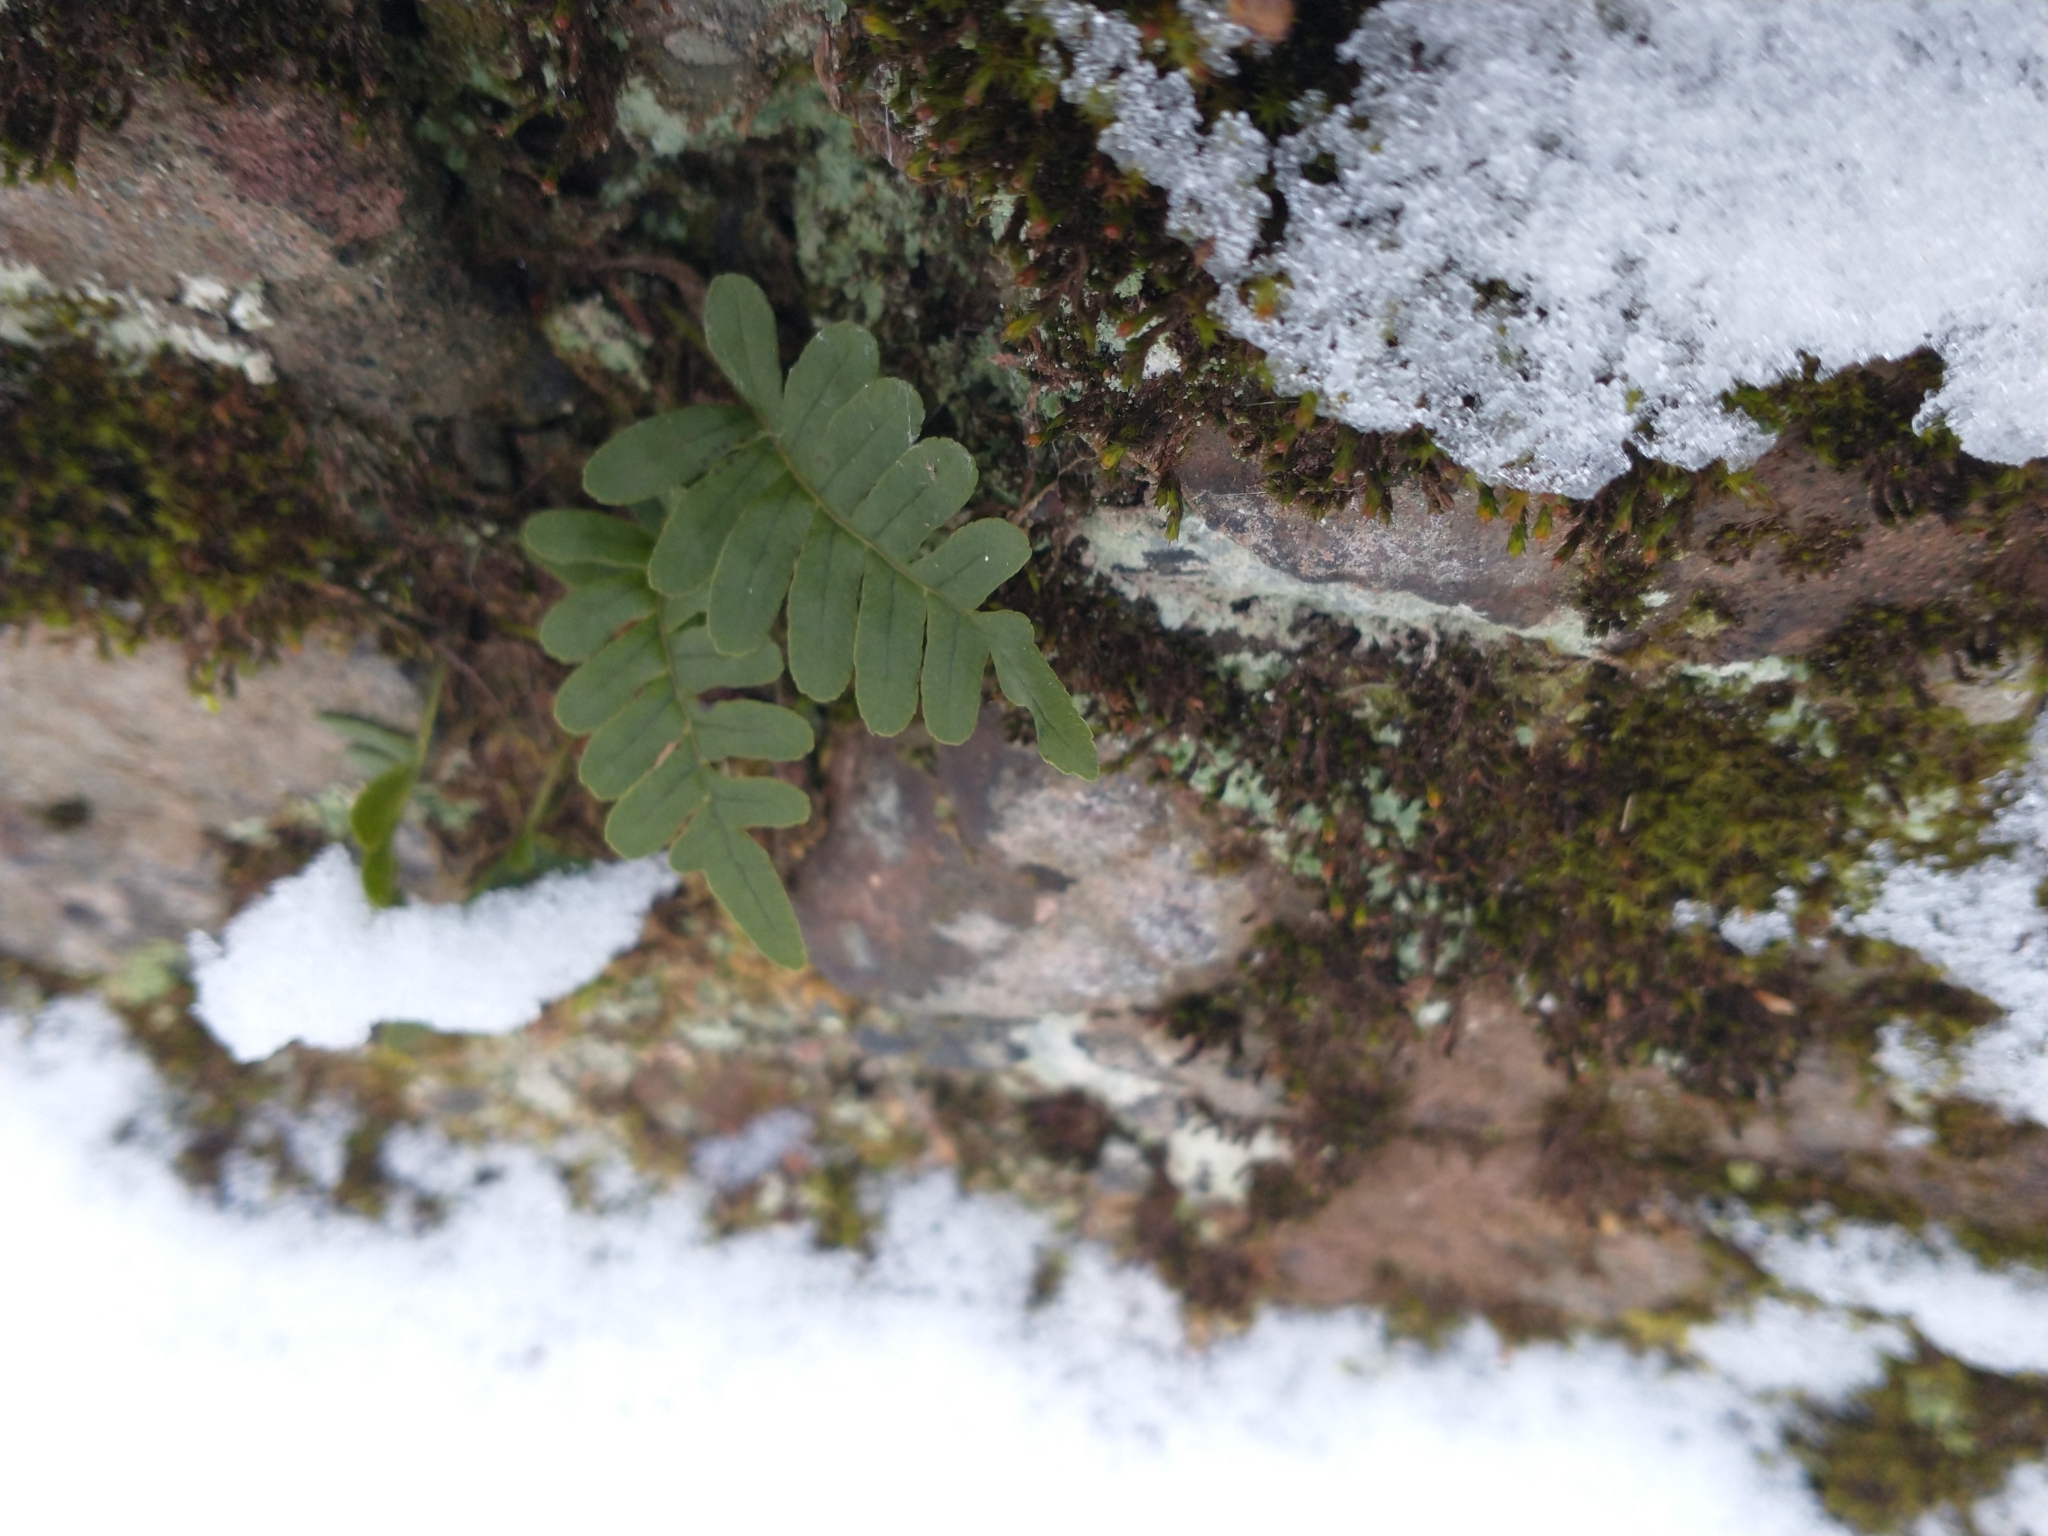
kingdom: Plantae
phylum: Tracheophyta
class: Polypodiopsida
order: Polypodiales
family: Polypodiaceae
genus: Polypodium
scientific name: Polypodium virginianum
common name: American wall fern
